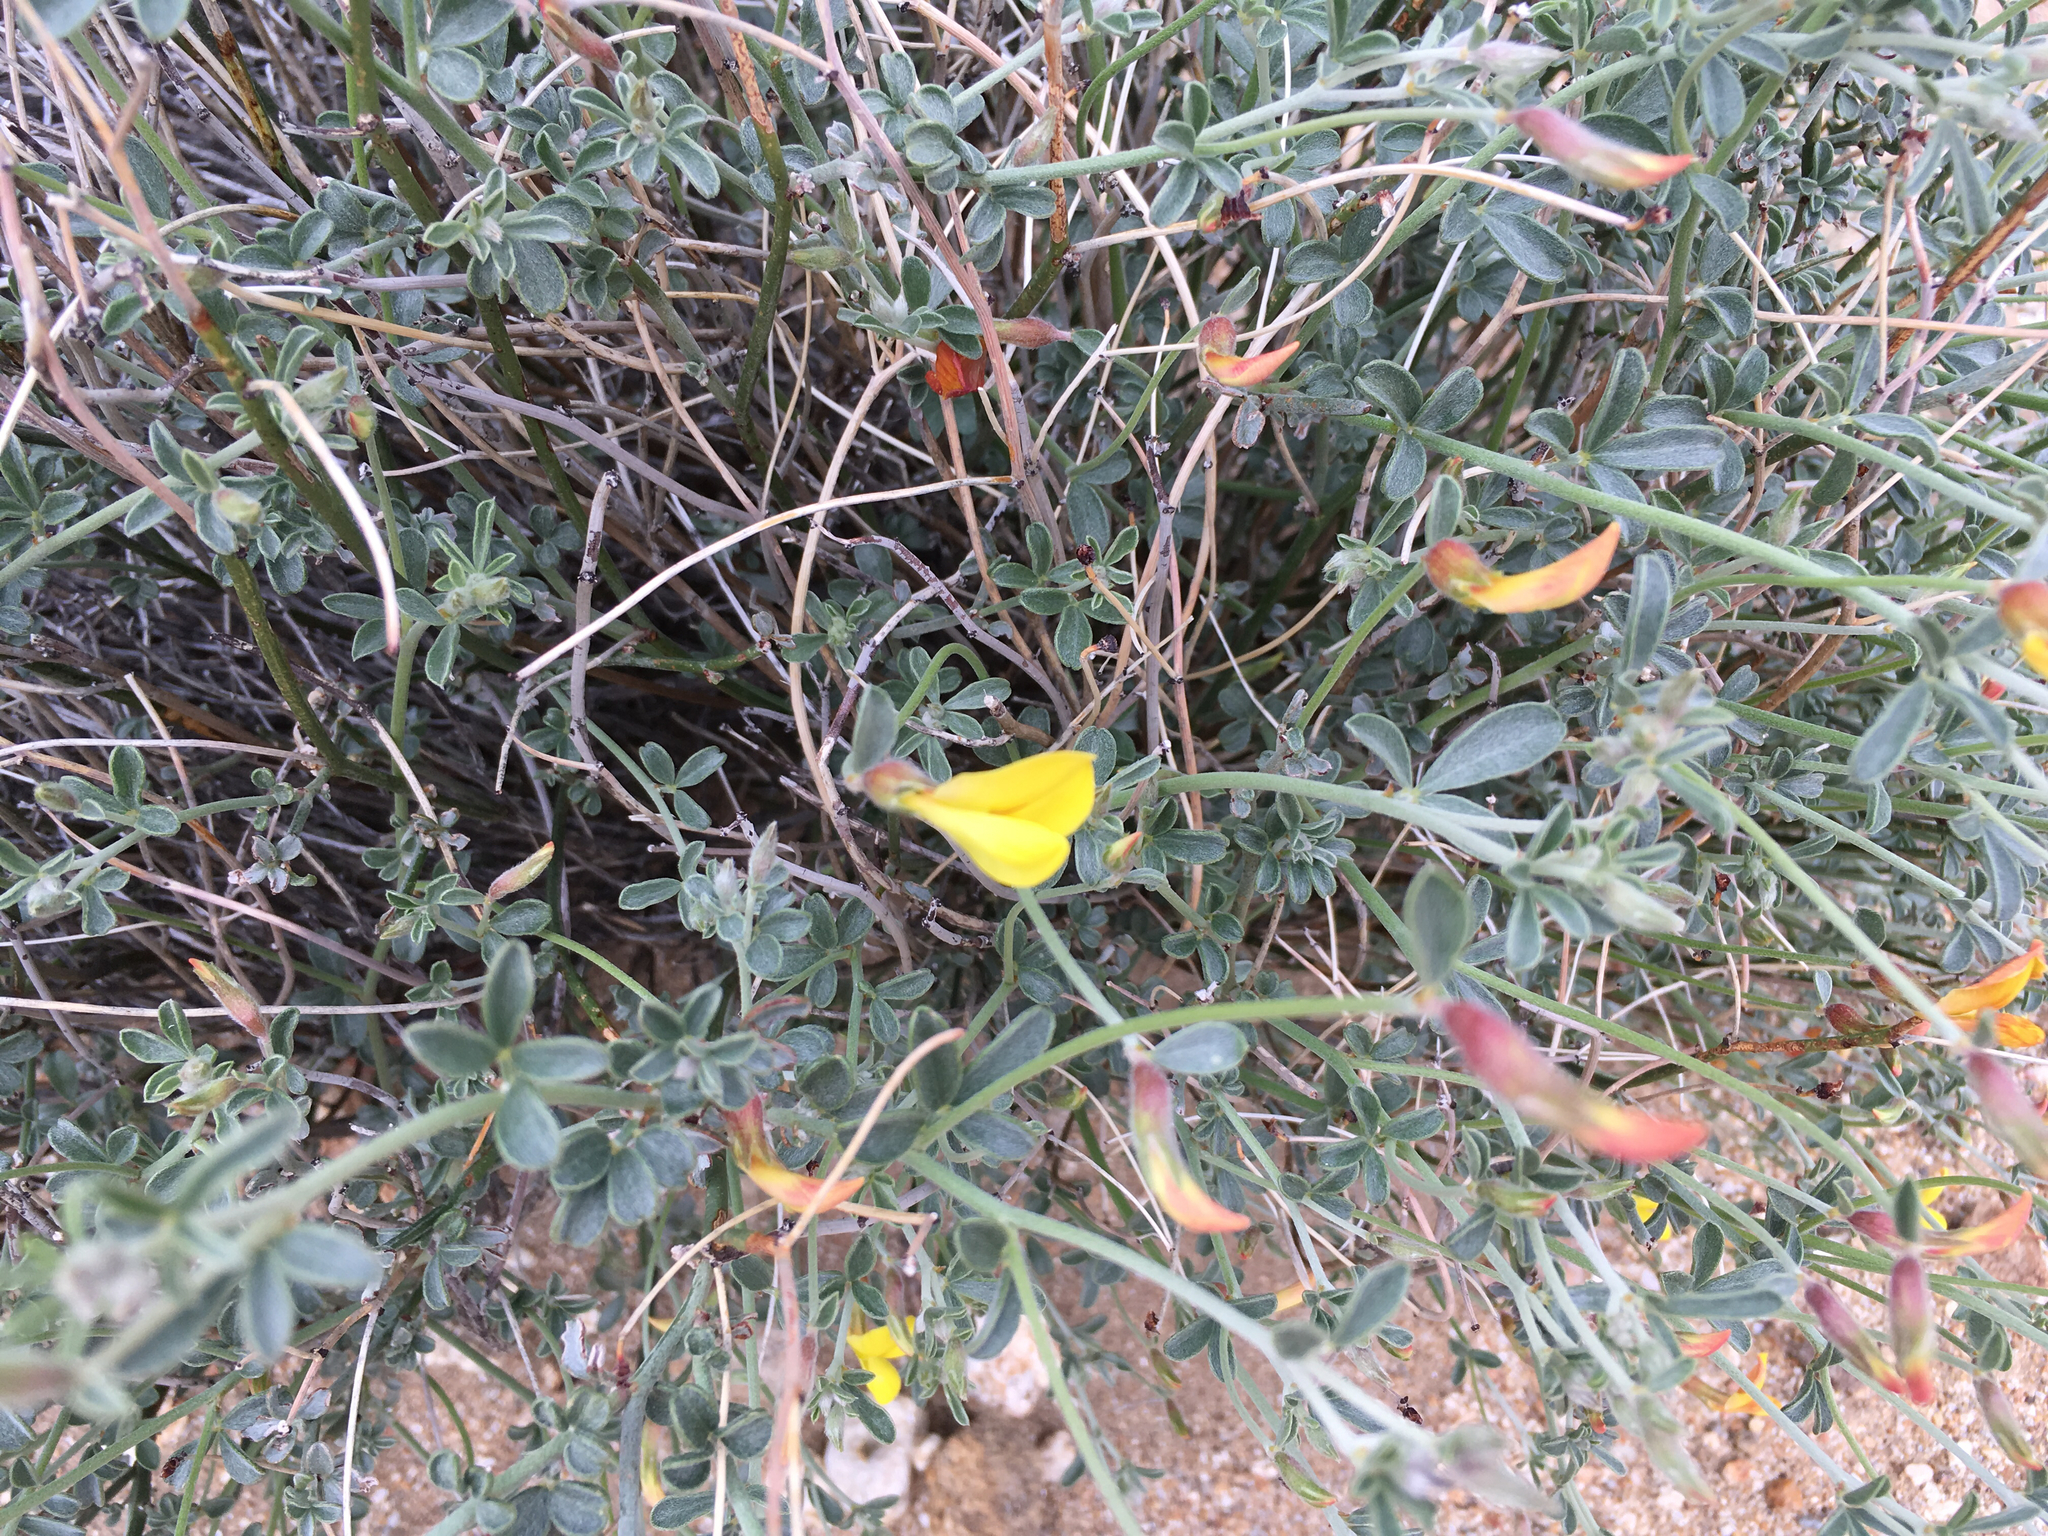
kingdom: Plantae
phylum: Tracheophyta
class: Magnoliopsida
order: Fabales
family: Fabaceae
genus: Acmispon
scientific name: Acmispon rigidus
